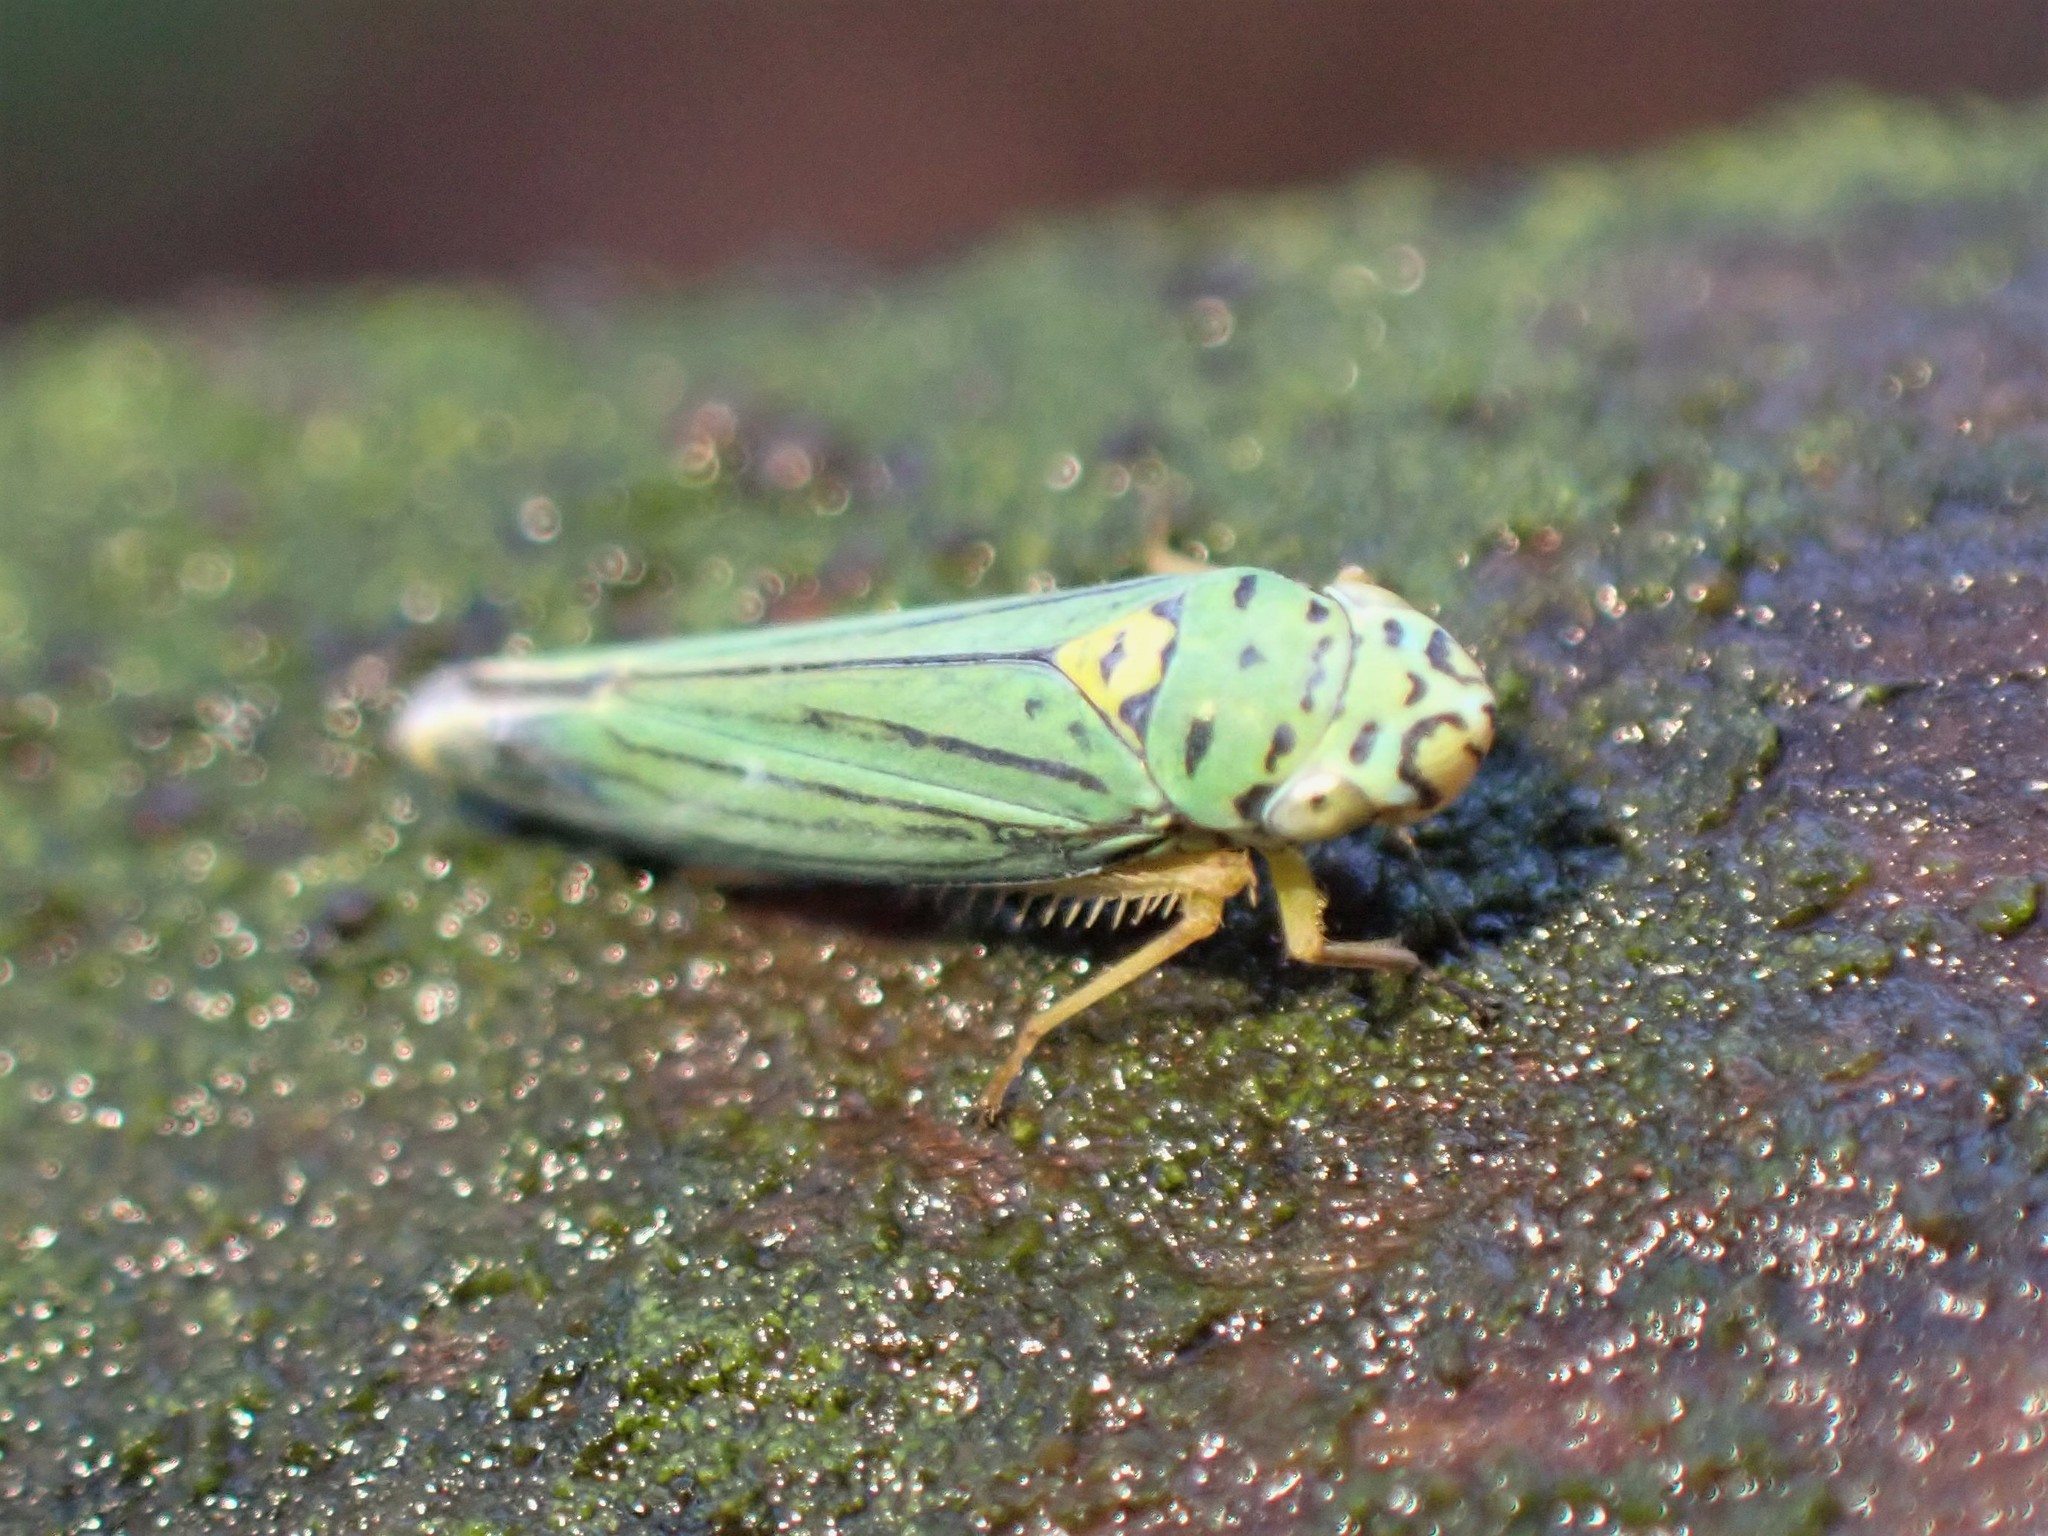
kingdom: Animalia
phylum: Arthropoda
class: Insecta
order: Hemiptera
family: Cicadellidae
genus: Graphocephala
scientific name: Graphocephala atropunctata
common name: Blue-green sharpshooter
